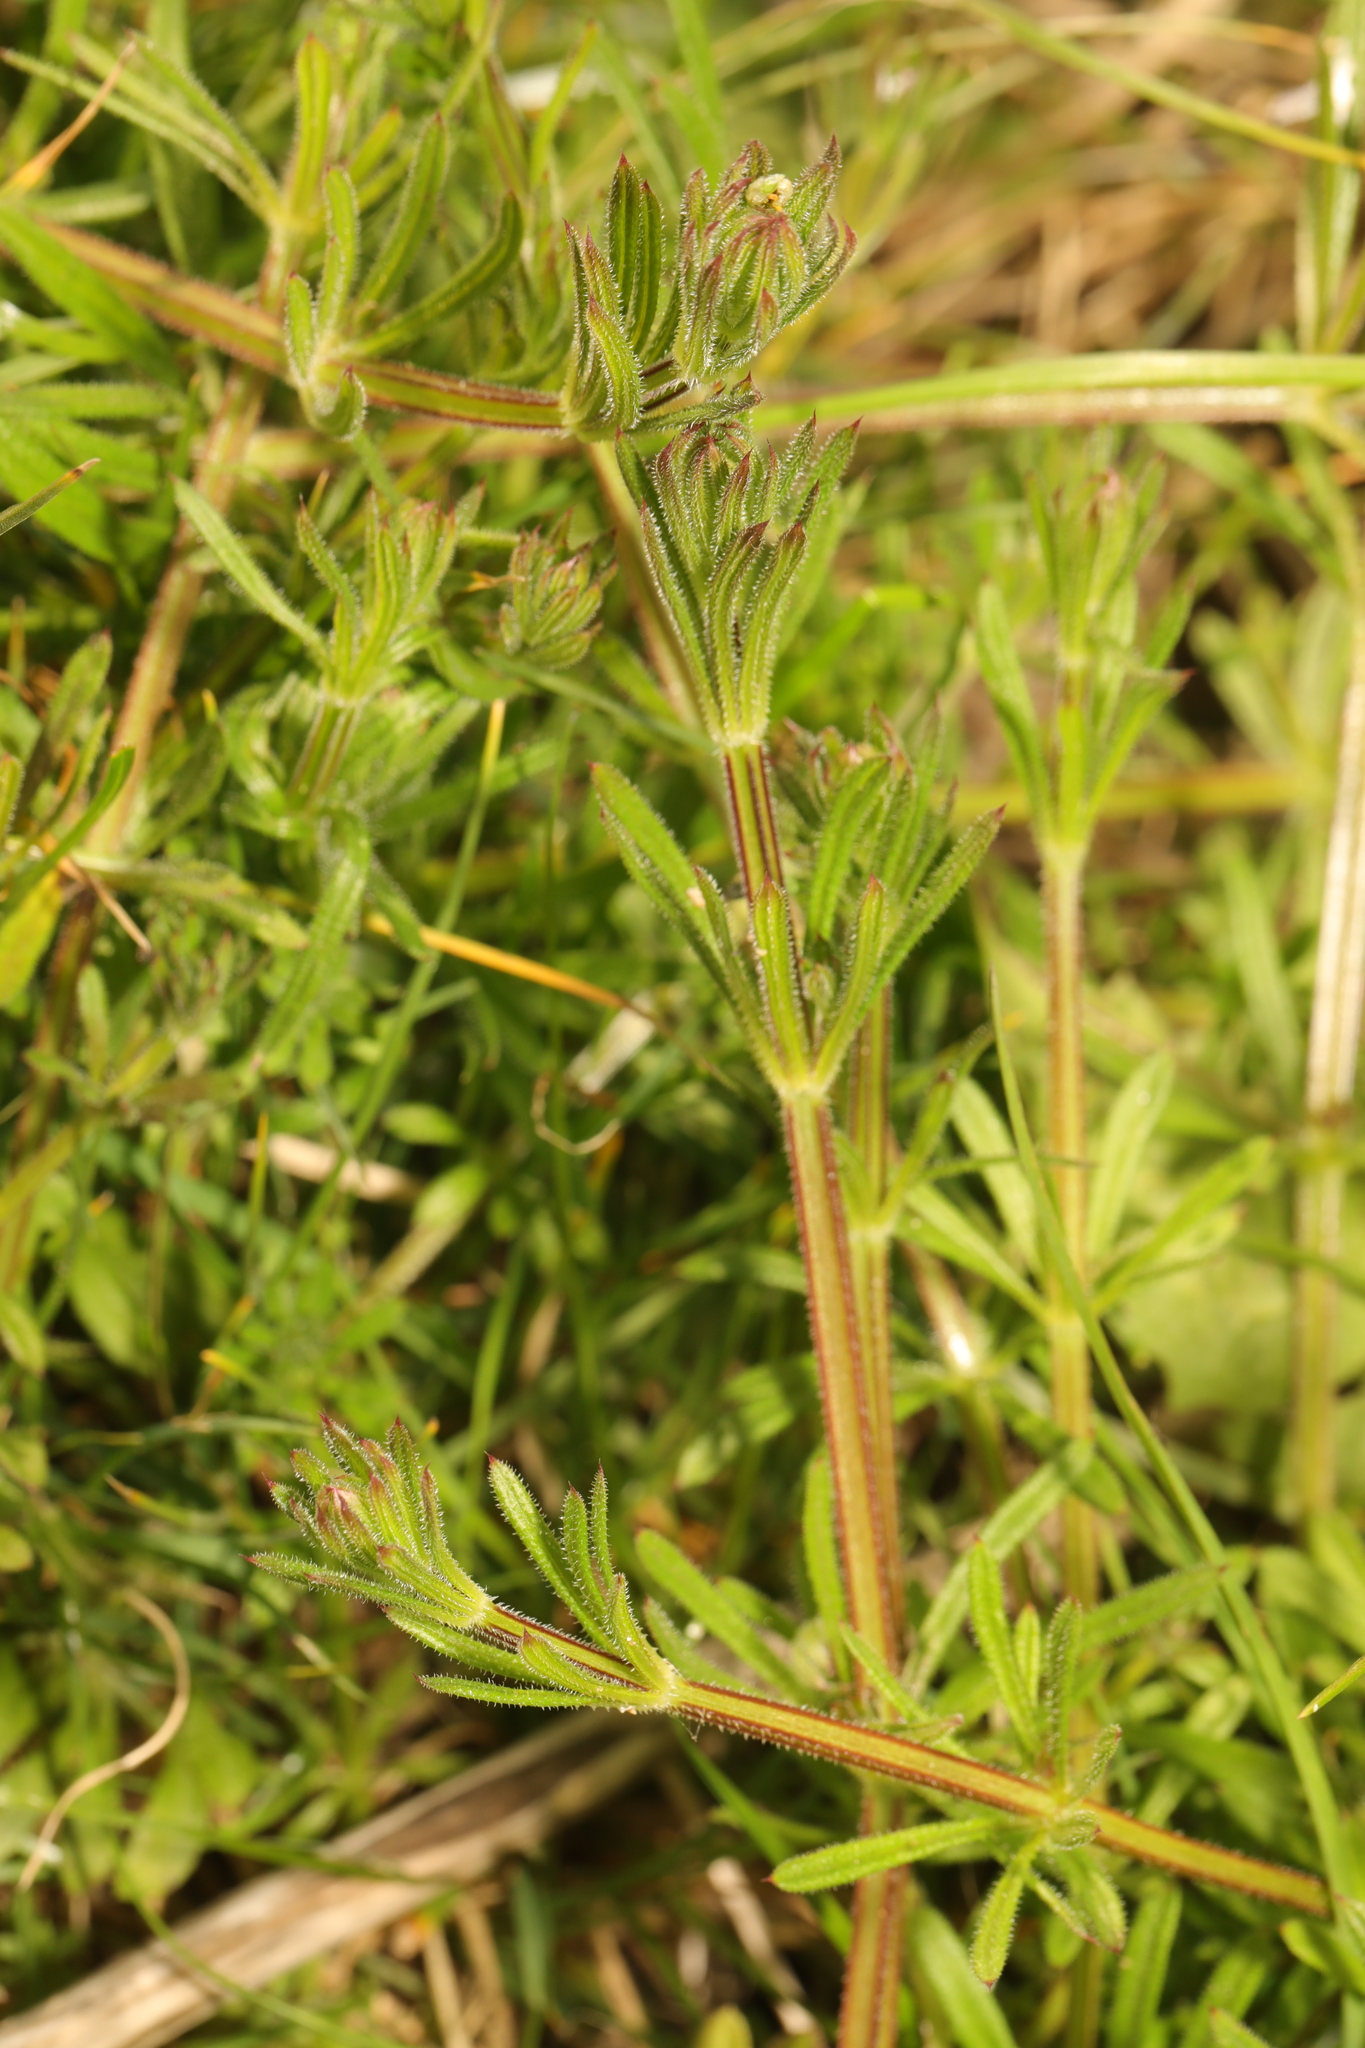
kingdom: Plantae
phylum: Tracheophyta
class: Magnoliopsida
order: Gentianales
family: Rubiaceae
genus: Galium
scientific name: Galium aparine
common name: Cleavers
